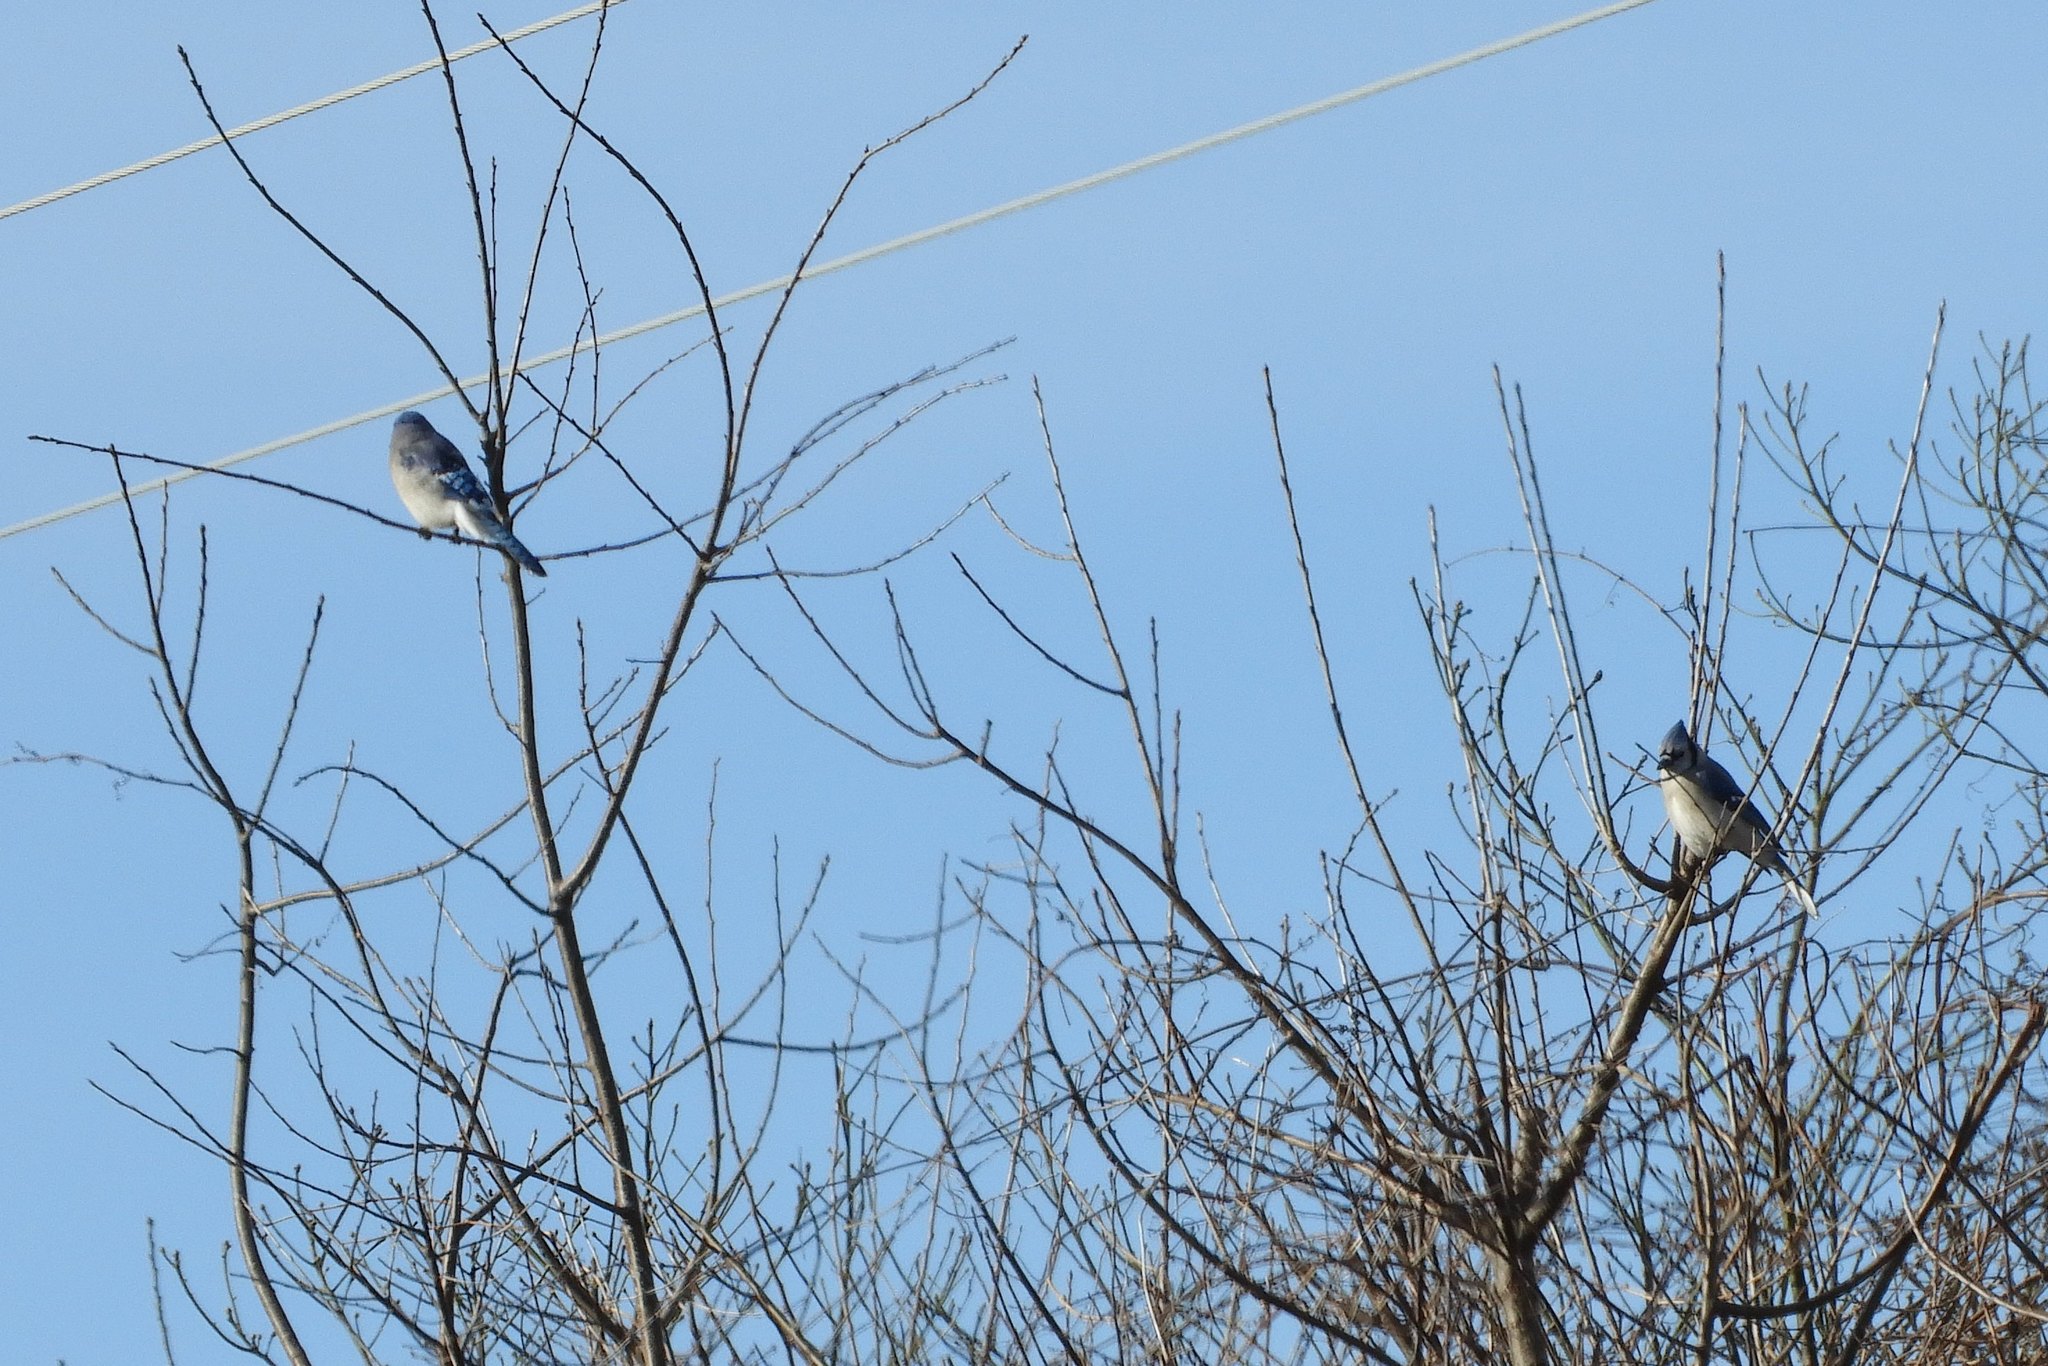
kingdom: Animalia
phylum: Chordata
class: Aves
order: Passeriformes
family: Corvidae
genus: Cyanocitta
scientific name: Cyanocitta cristata
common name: Blue jay
